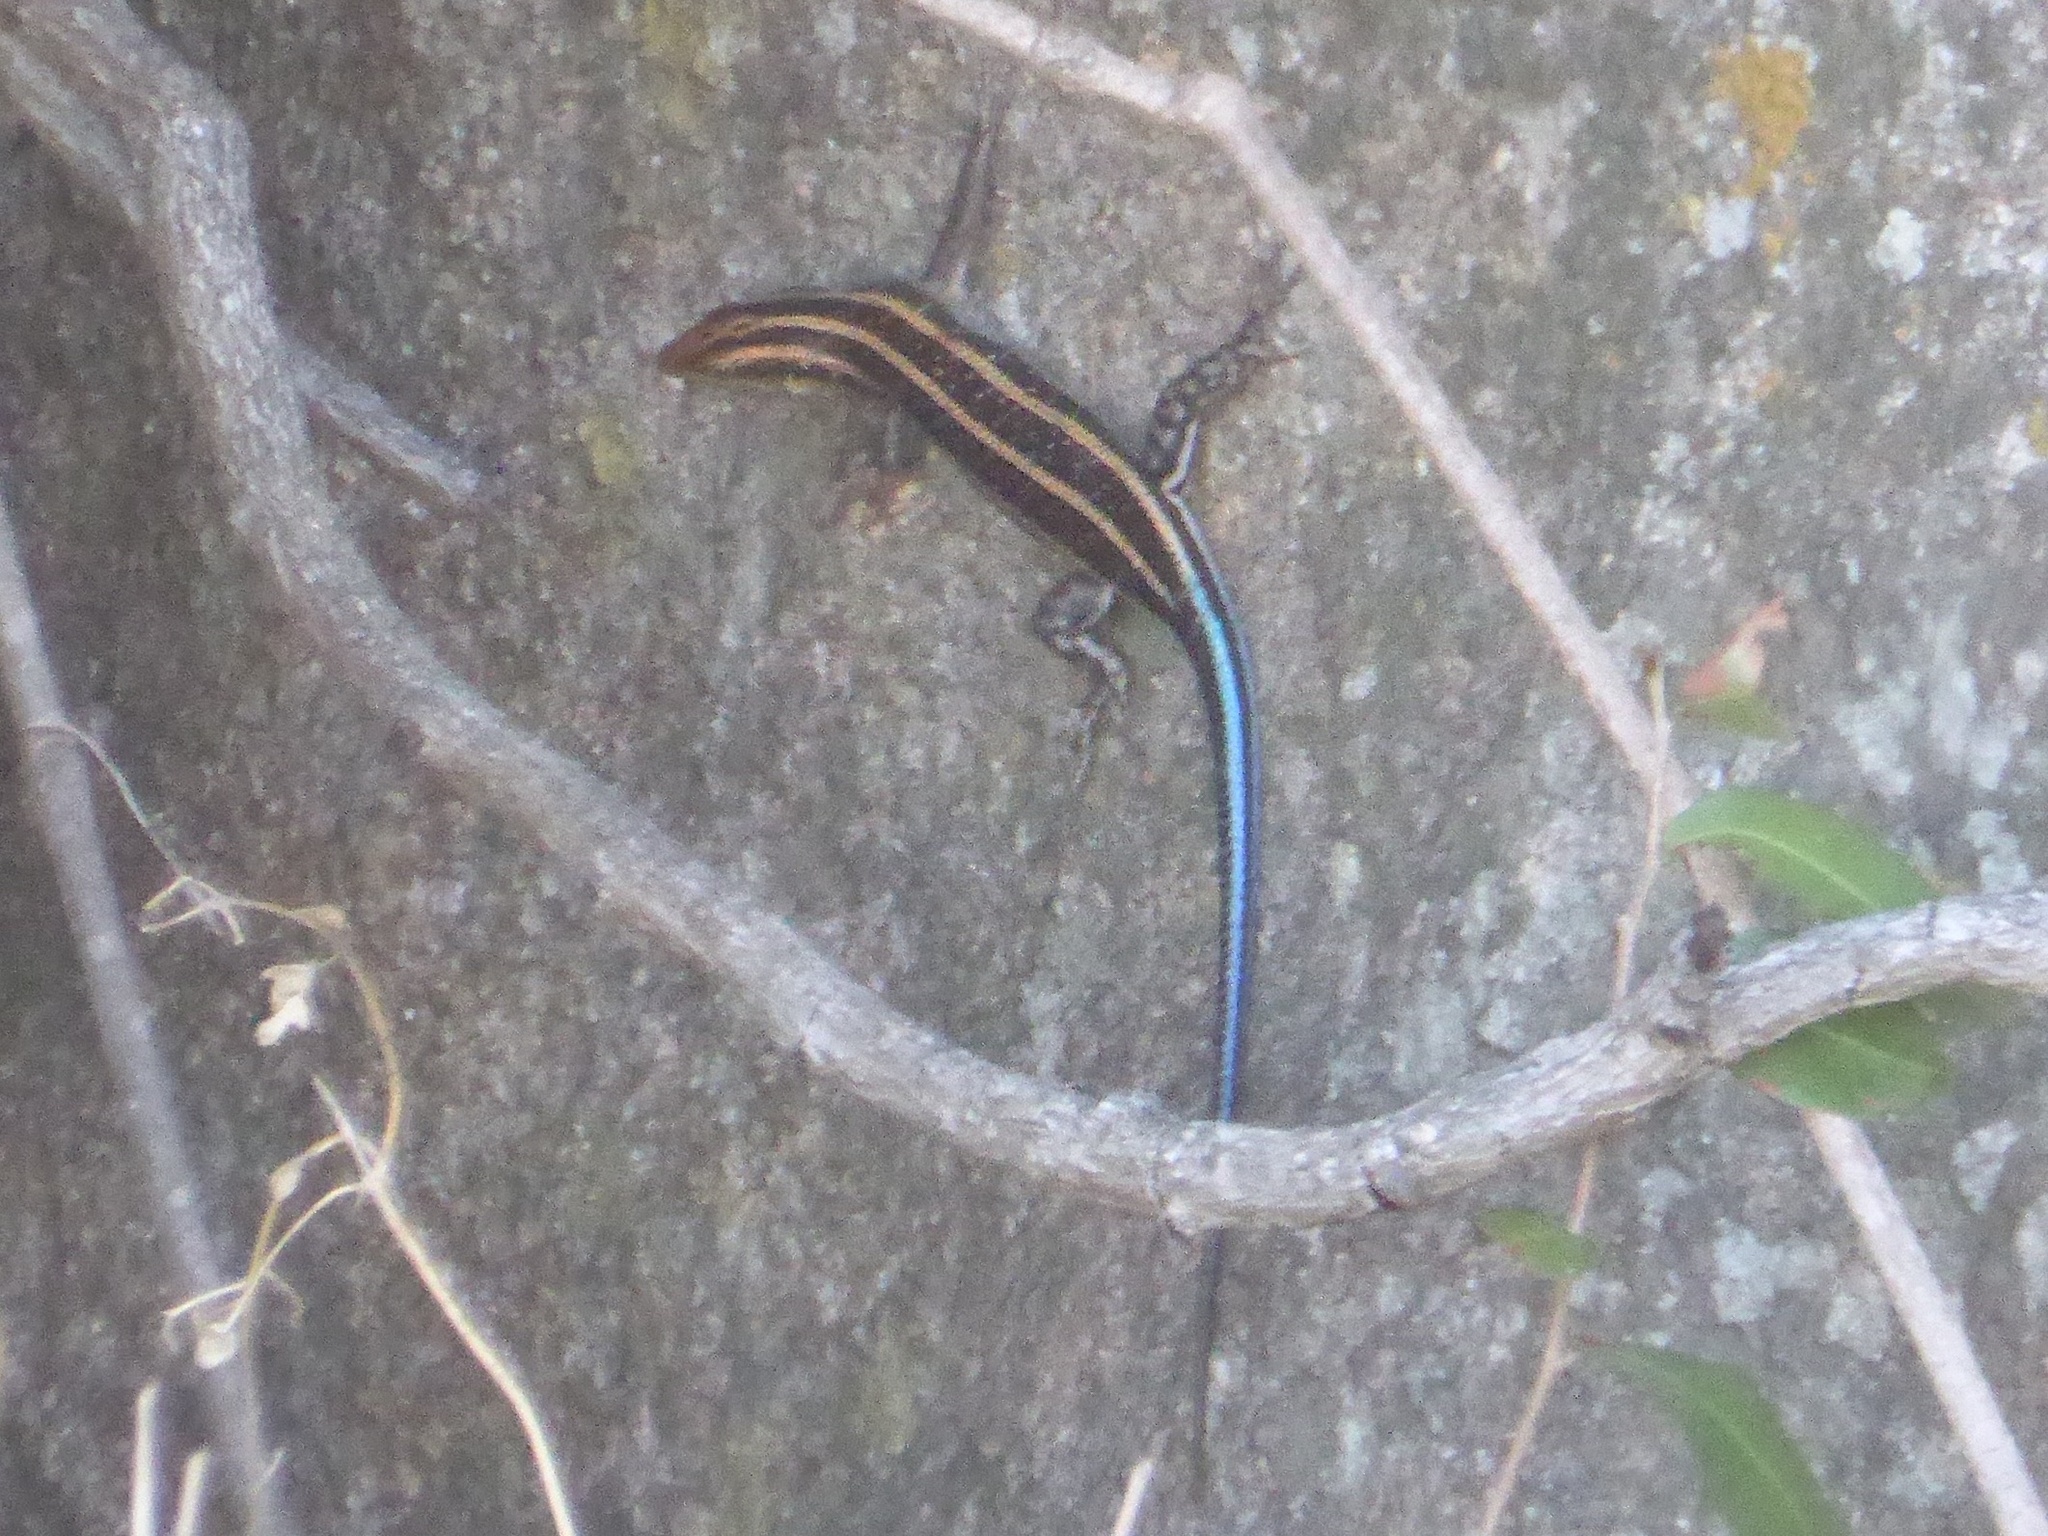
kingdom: Animalia
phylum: Chordata
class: Squamata
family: Scincidae
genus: Trachylepis
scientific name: Trachylepis margaritifera
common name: Rainbow skink
